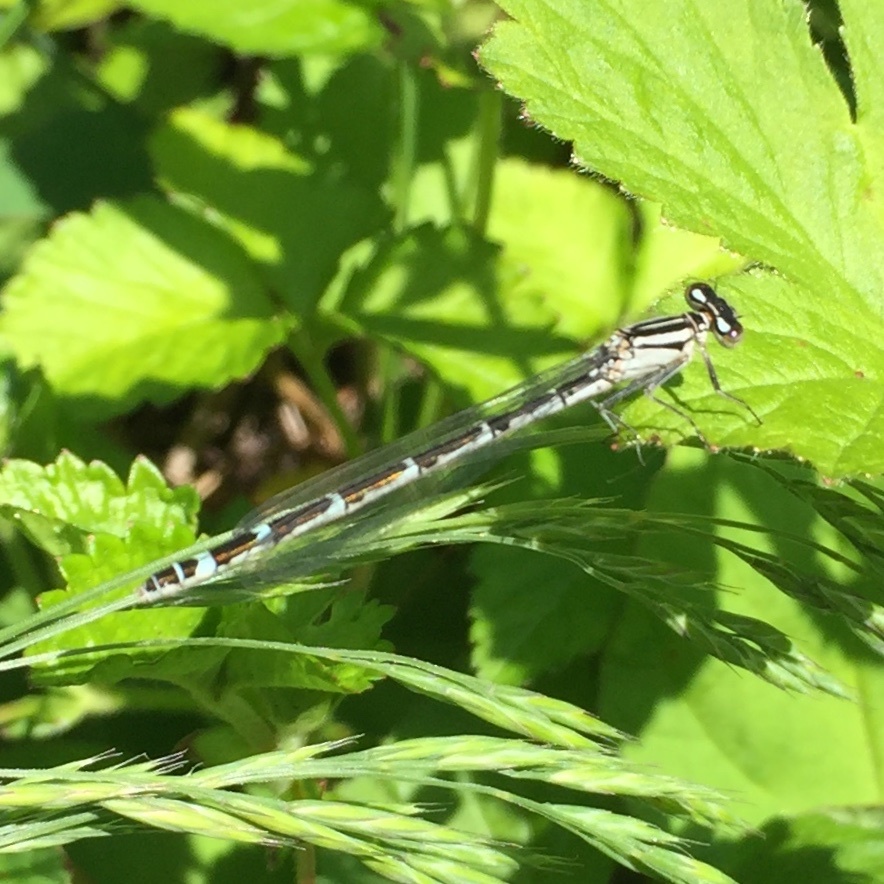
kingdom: Animalia
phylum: Arthropoda
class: Insecta
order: Odonata
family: Coenagrionidae
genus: Enallagma
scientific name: Enallagma cyathigerum
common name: Common blue damselfly
